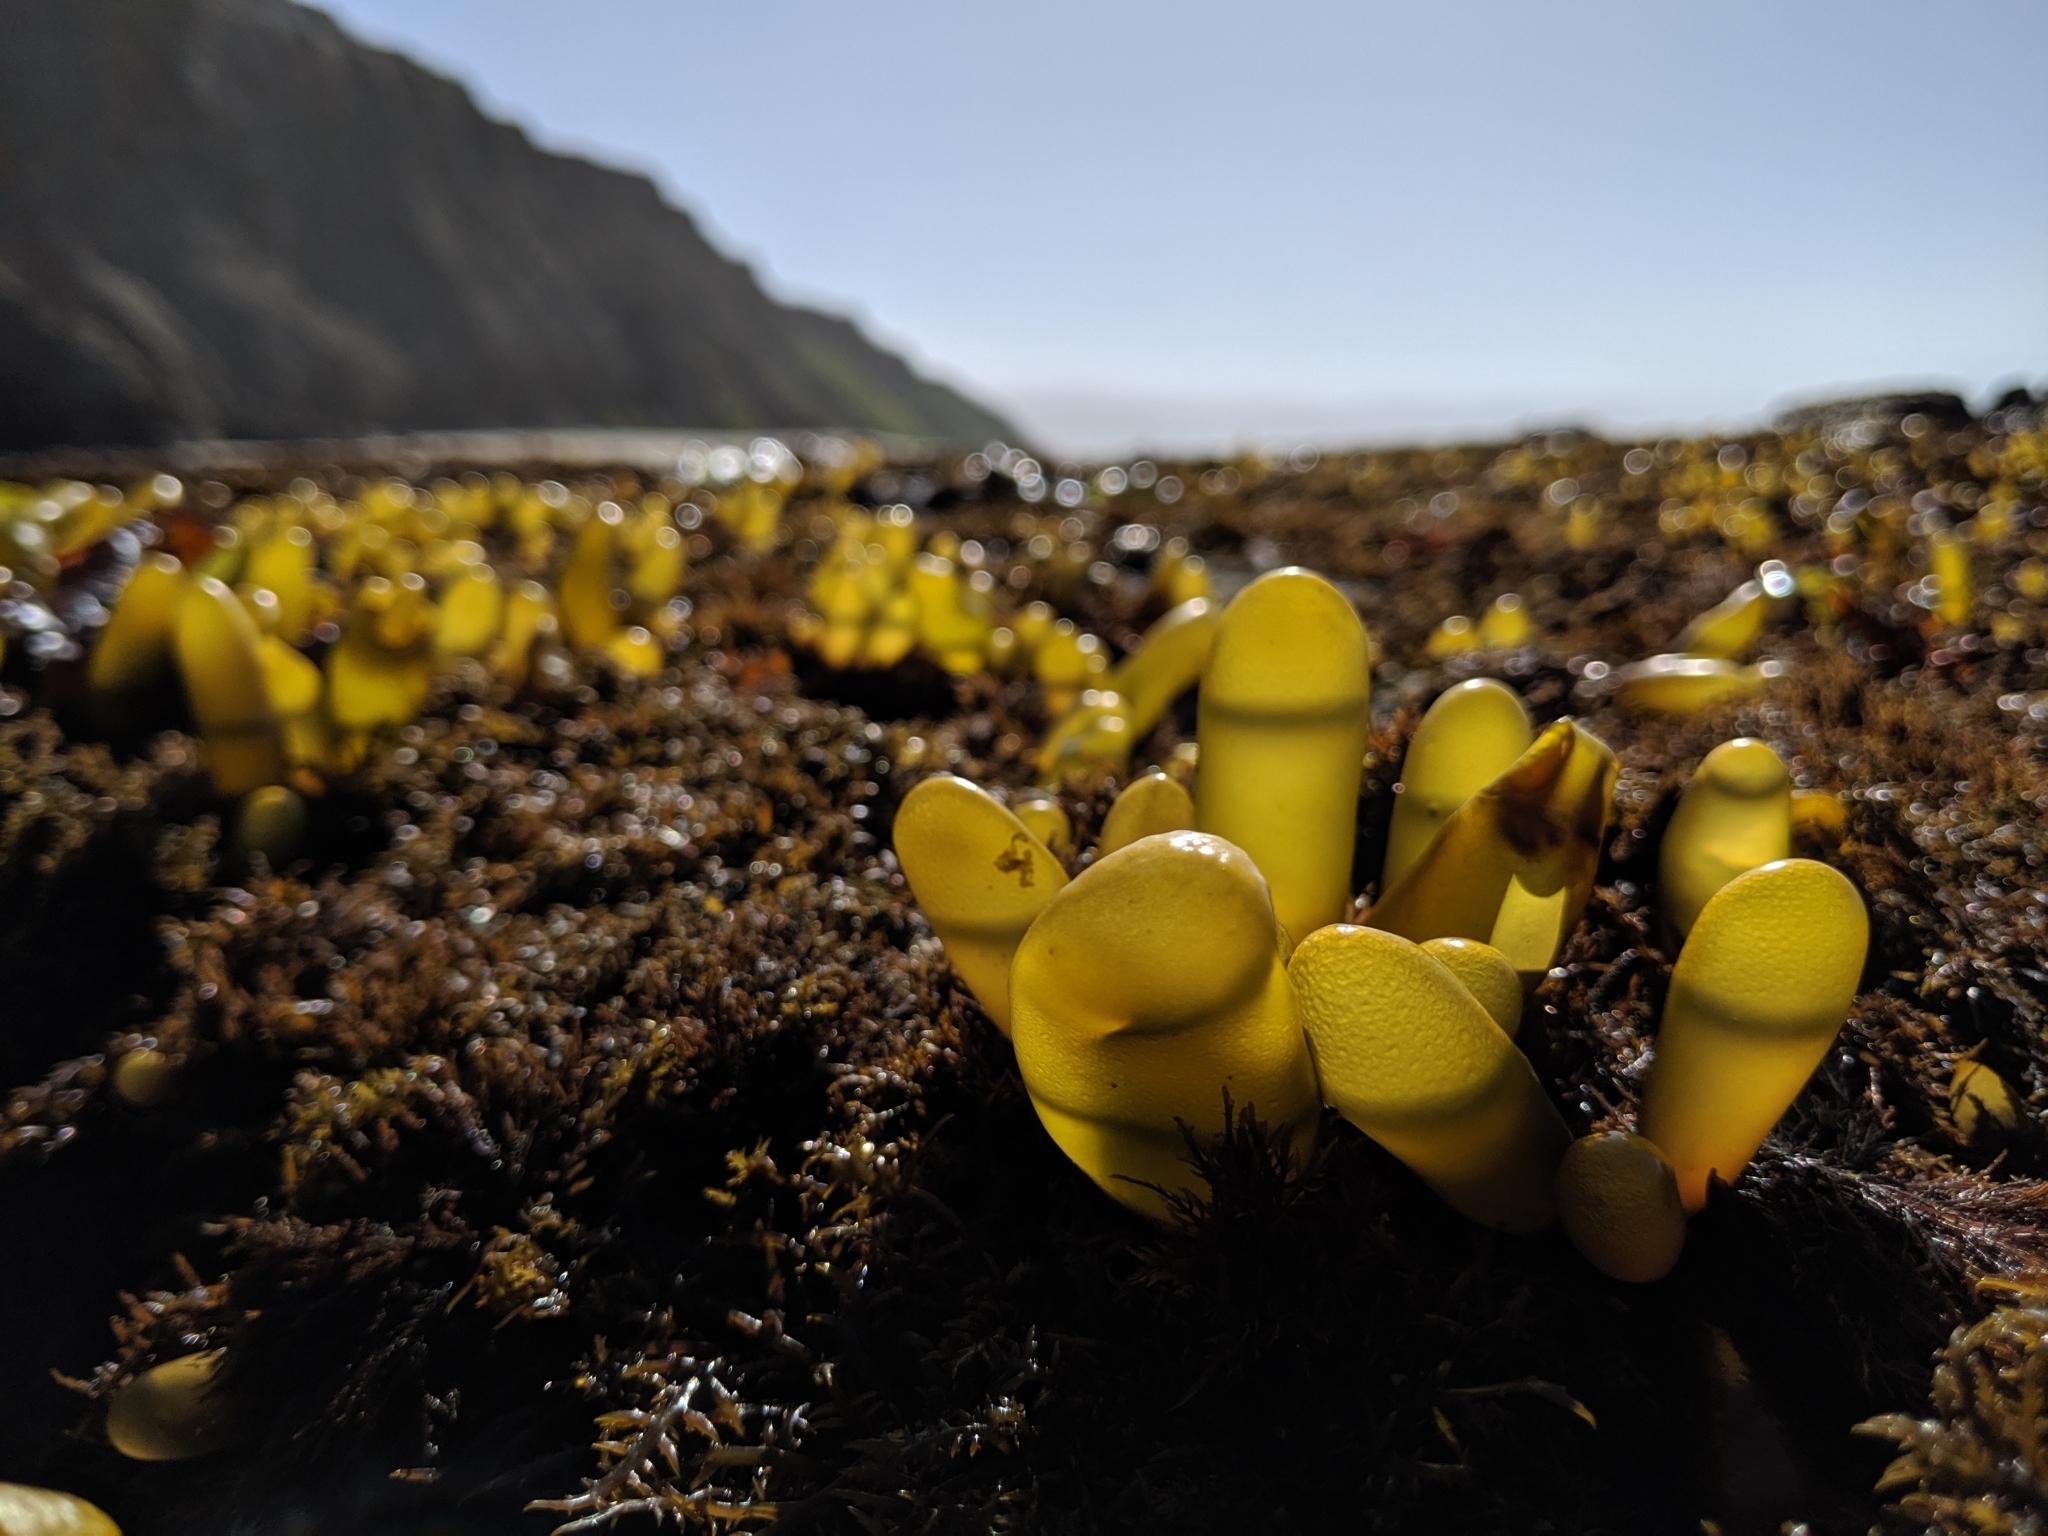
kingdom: Plantae
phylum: Rhodophyta
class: Florideophyceae
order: Palmariales
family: Palmariaceae
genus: Halosaccion
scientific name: Halosaccion glandiforme
